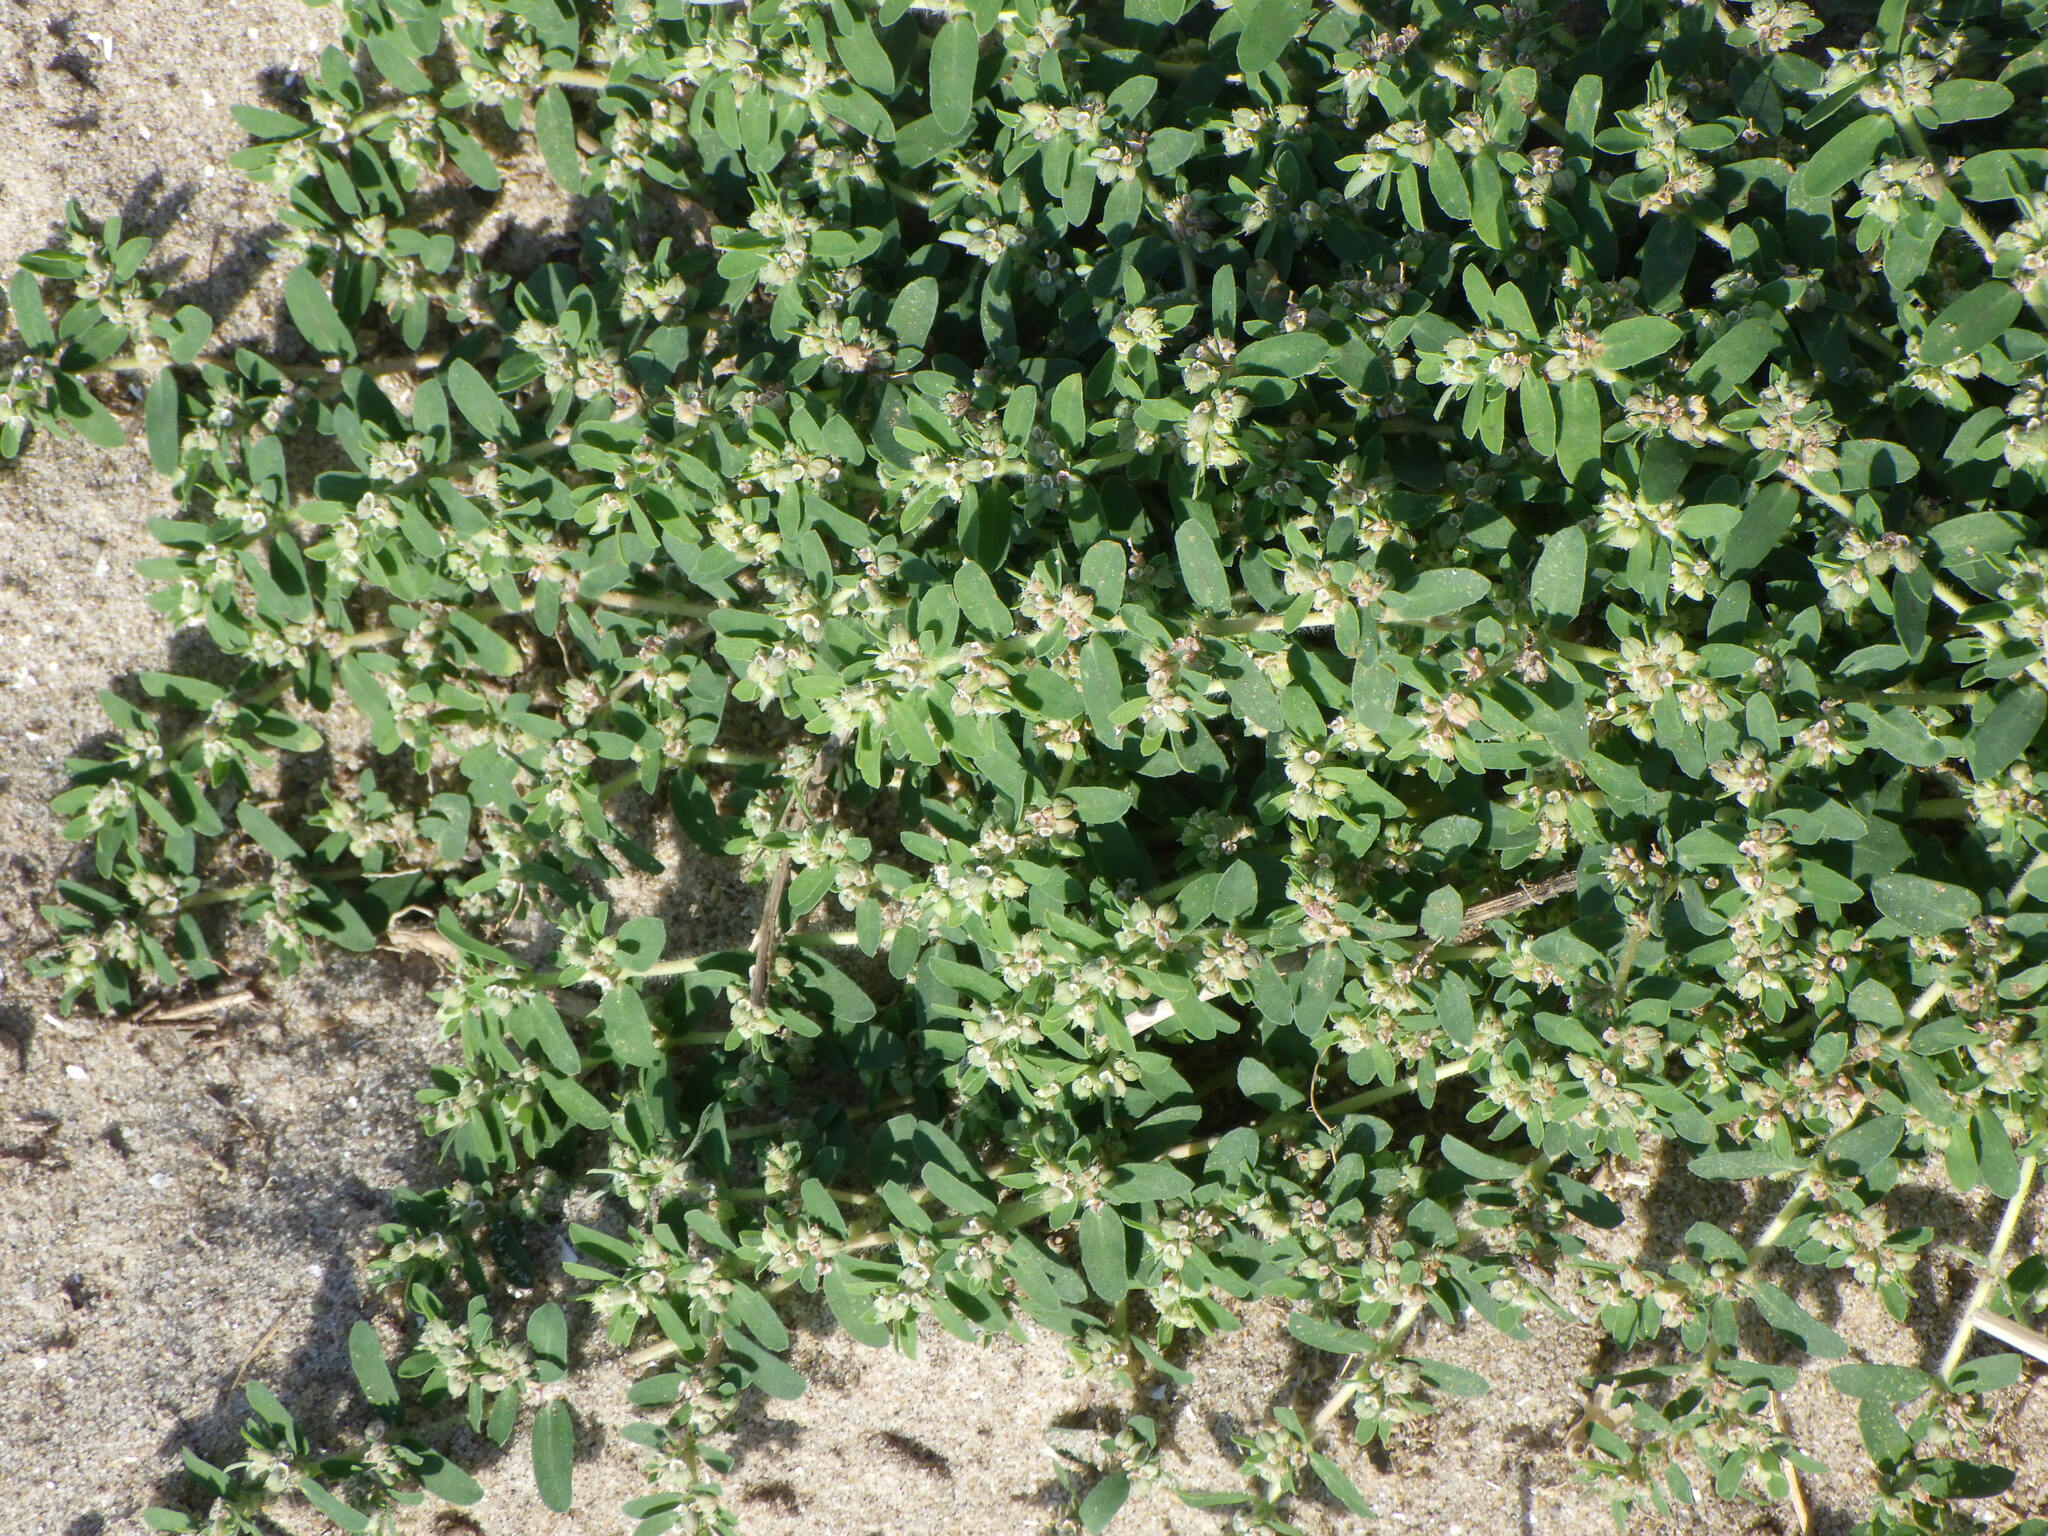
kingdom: Plantae
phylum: Tracheophyta
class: Magnoliopsida
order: Malpighiales
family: Euphorbiaceae
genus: Euphorbia
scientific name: Euphorbia maculata
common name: Spotted spurge
